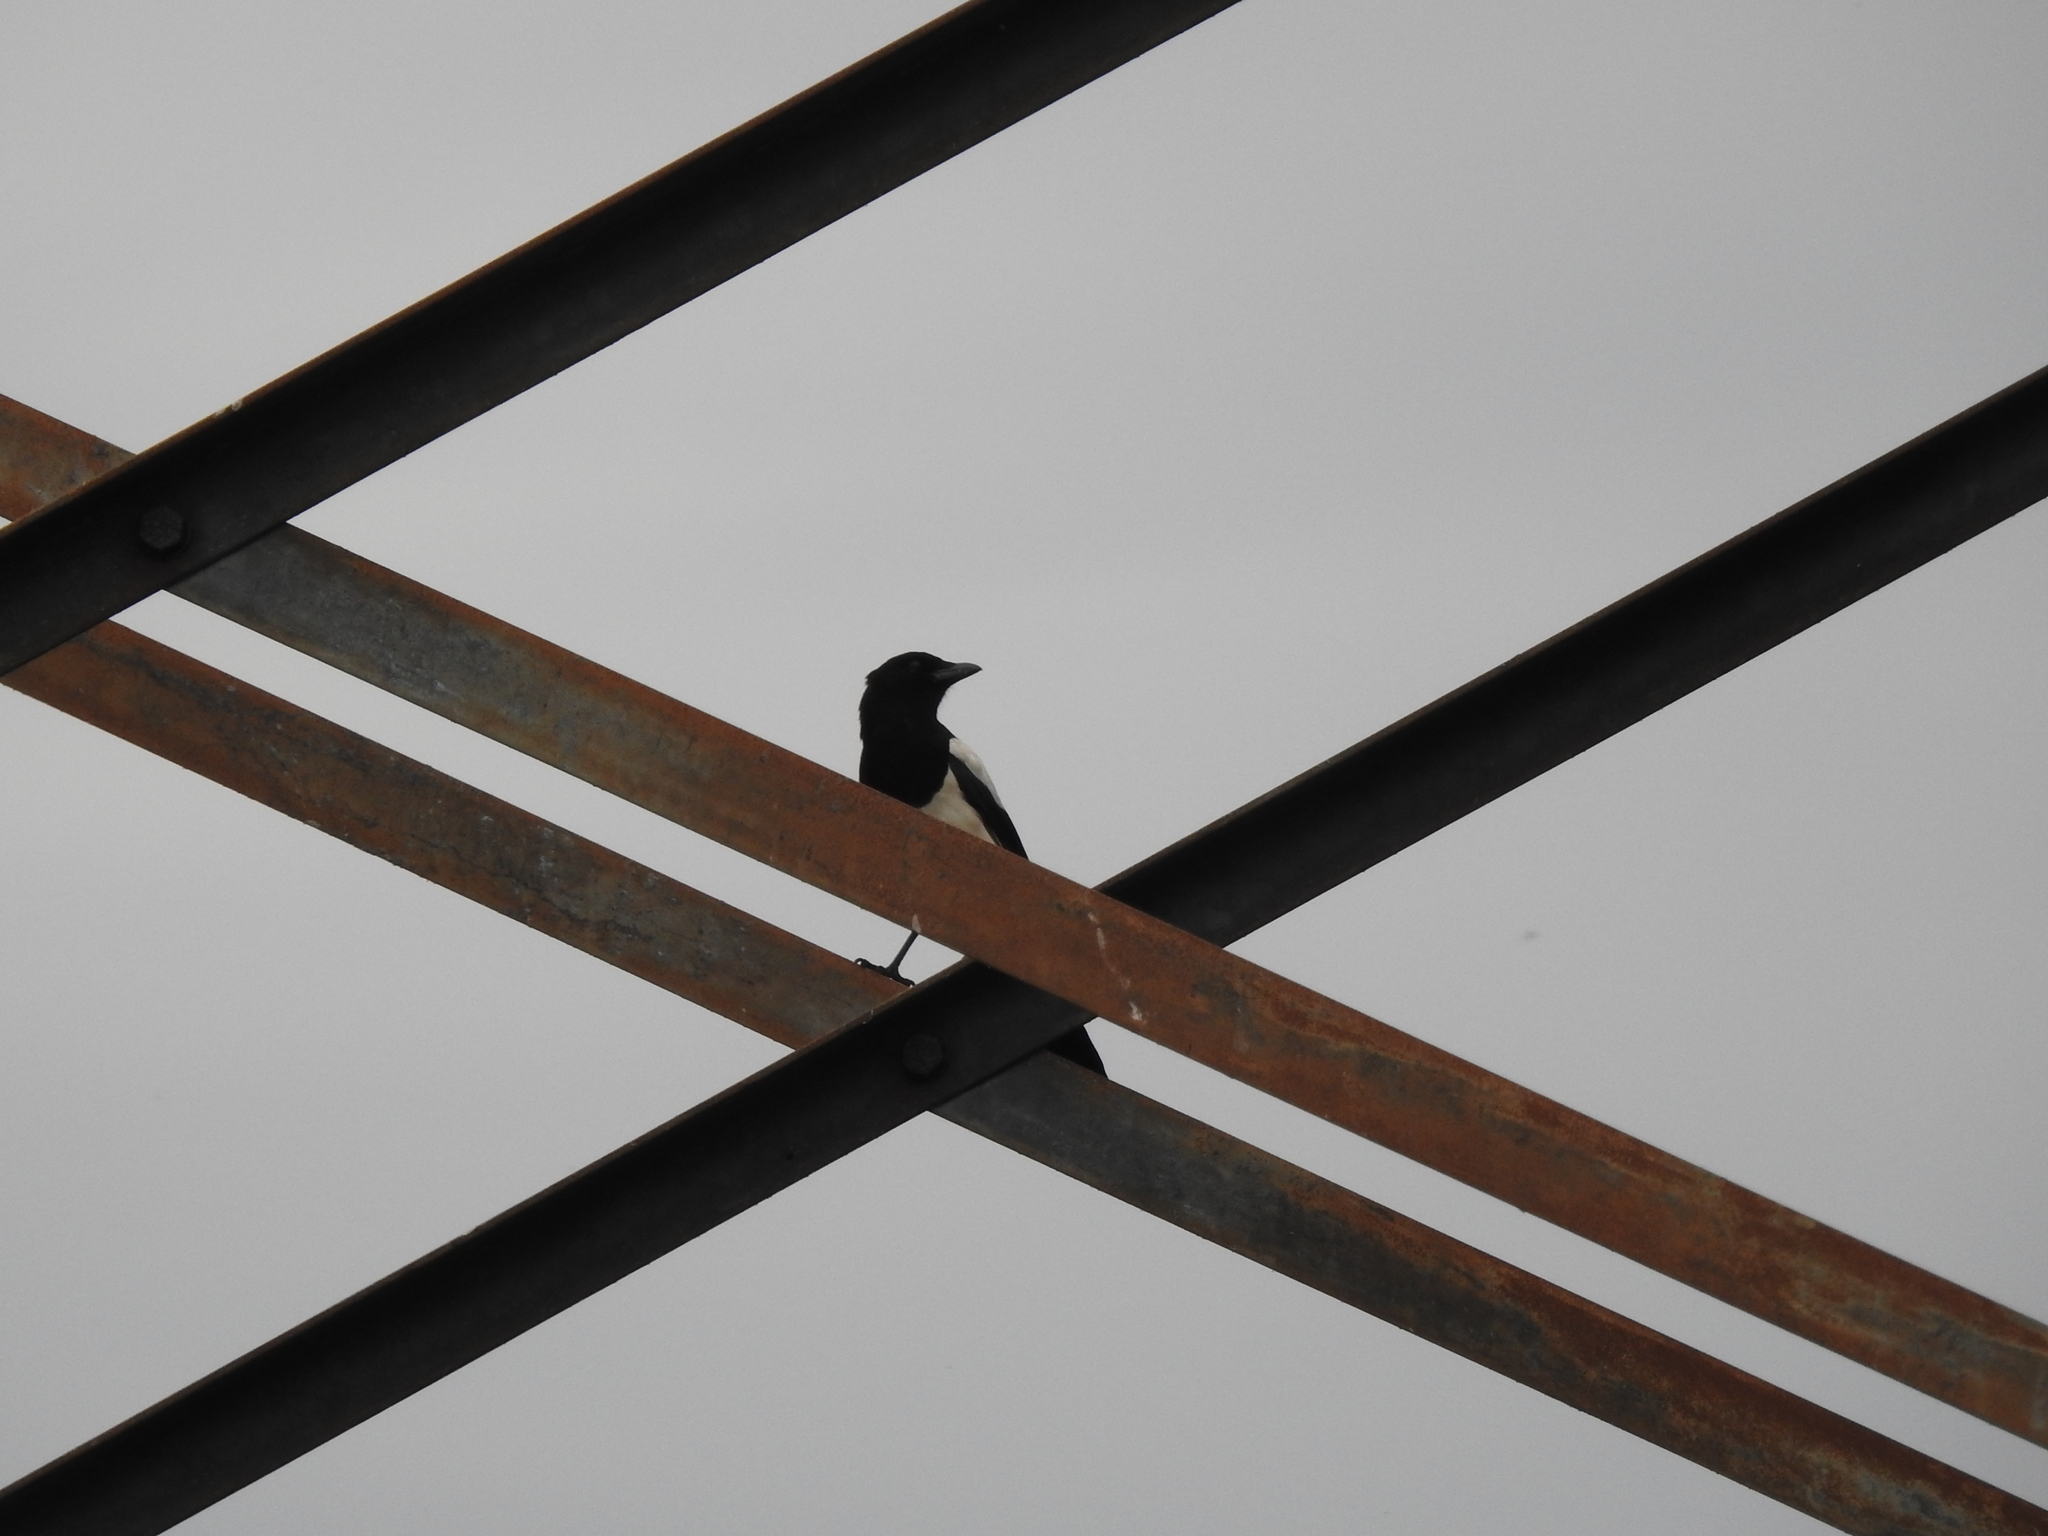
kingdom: Animalia
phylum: Chordata
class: Aves
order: Passeriformes
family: Corvidae
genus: Pica
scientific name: Pica pica
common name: Eurasian magpie
